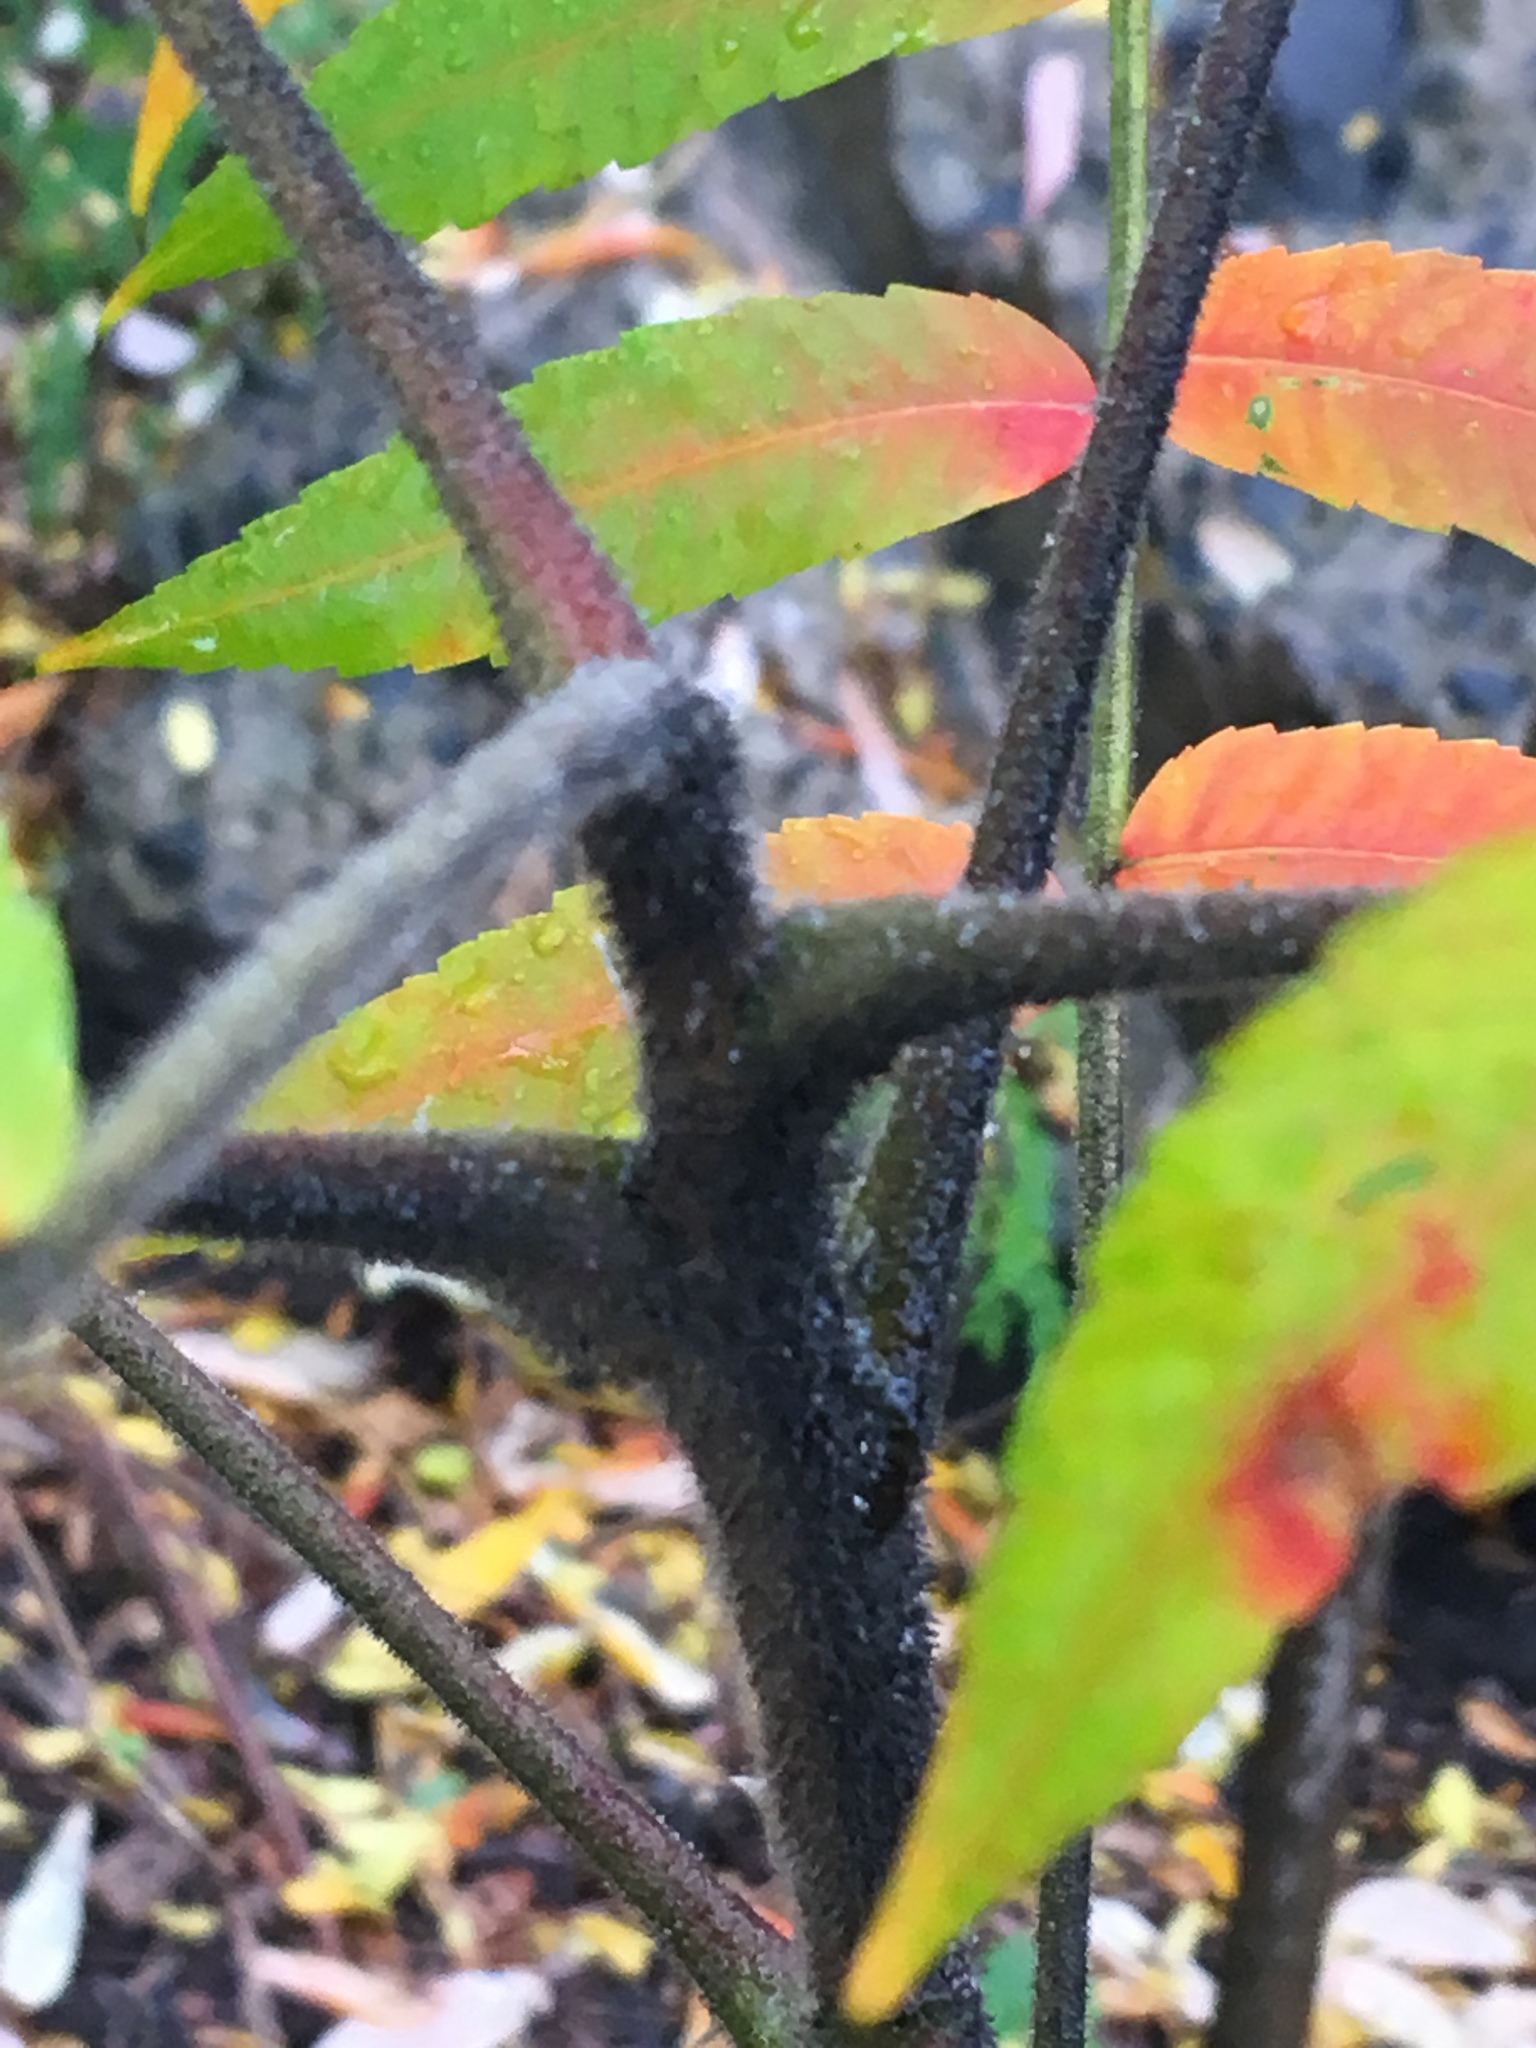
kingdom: Plantae
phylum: Tracheophyta
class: Magnoliopsida
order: Sapindales
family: Anacardiaceae
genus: Rhus
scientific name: Rhus typhina
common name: Staghorn sumac
